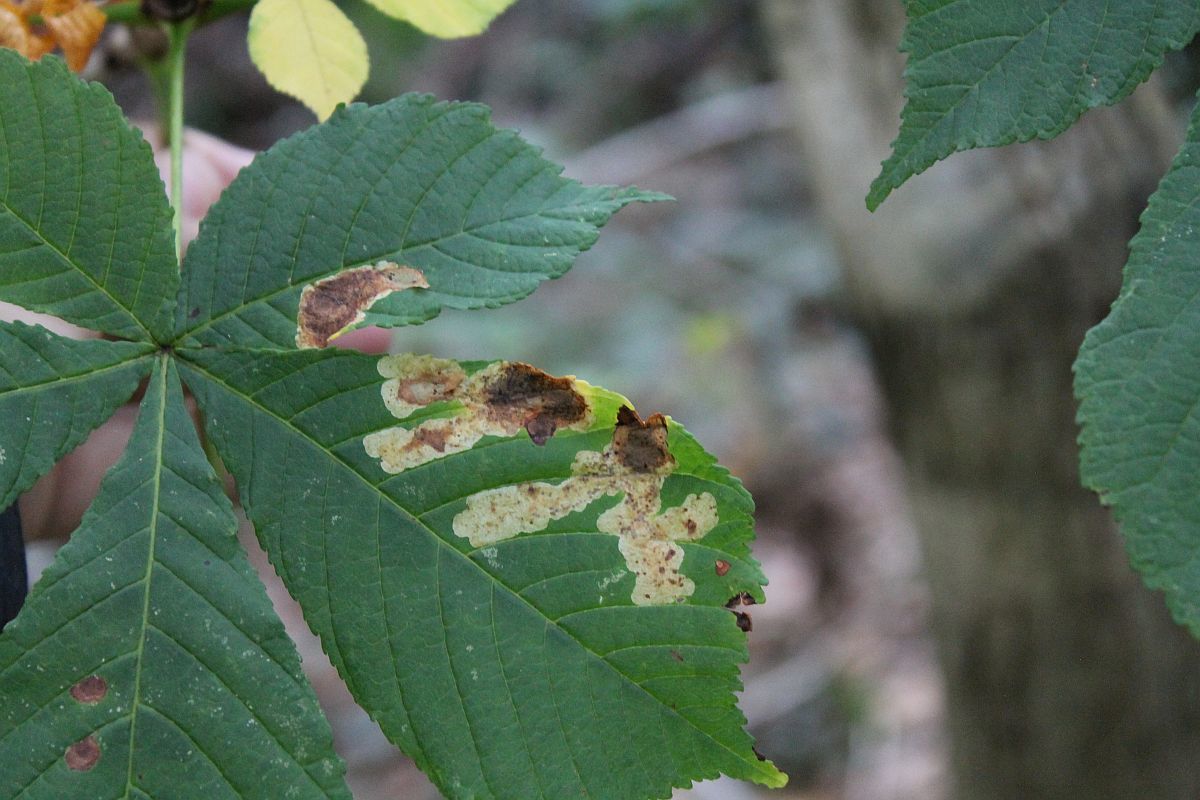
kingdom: Animalia
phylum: Arthropoda
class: Insecta
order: Lepidoptera
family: Gracillariidae
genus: Cameraria
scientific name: Cameraria ohridella
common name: Horse-chestnut leaf-miner
